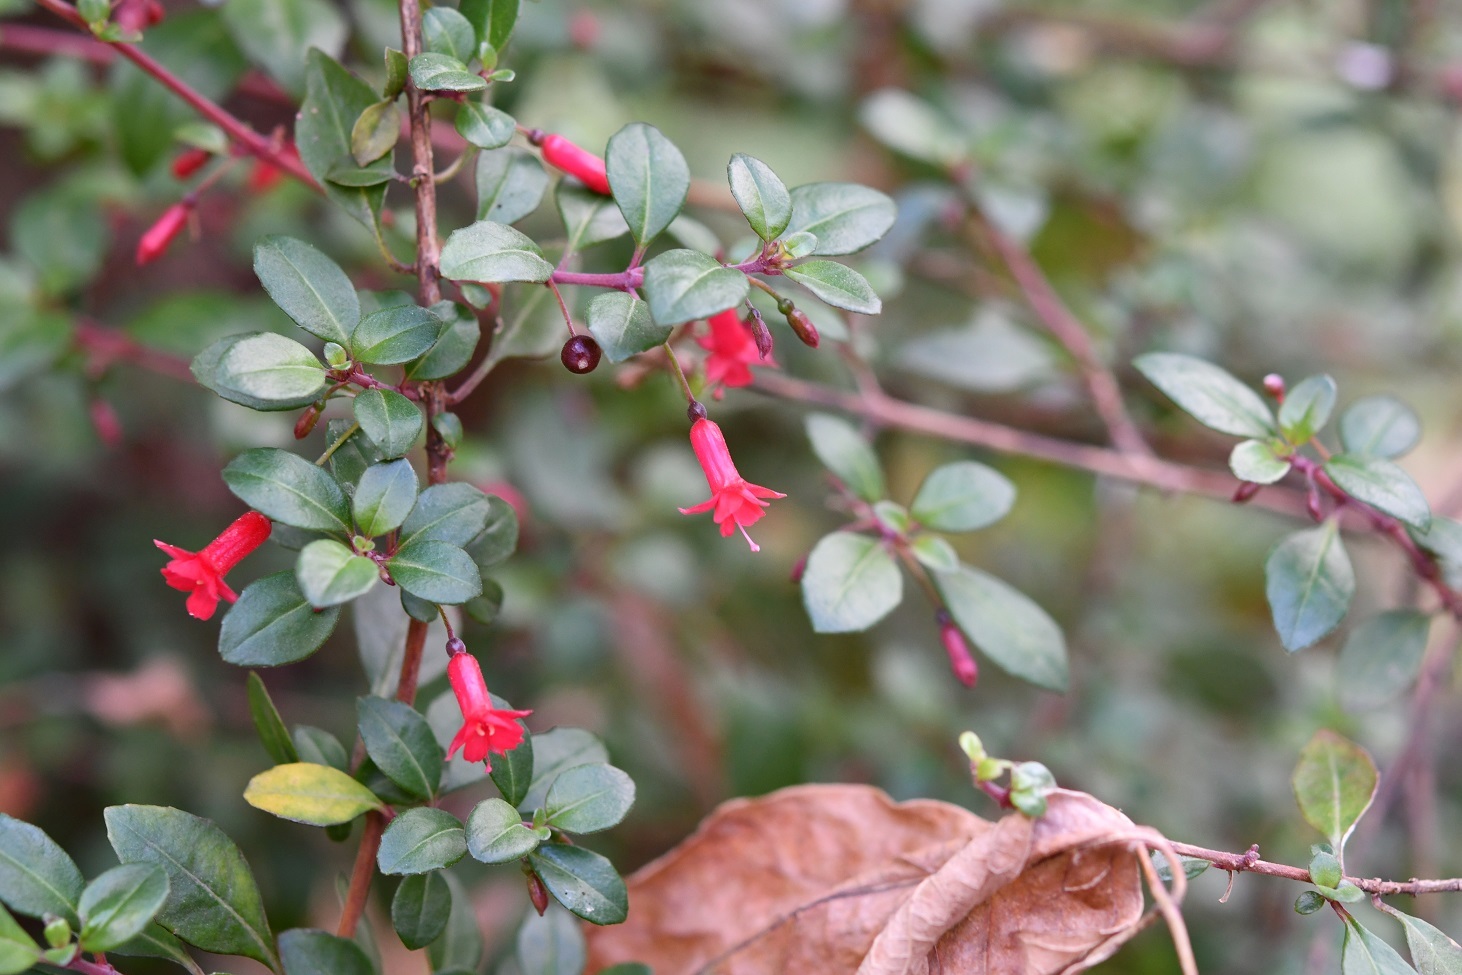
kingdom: Plantae
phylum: Tracheophyta
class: Magnoliopsida
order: Myrtales
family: Onagraceae
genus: Fuchsia
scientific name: Fuchsia microphylla
